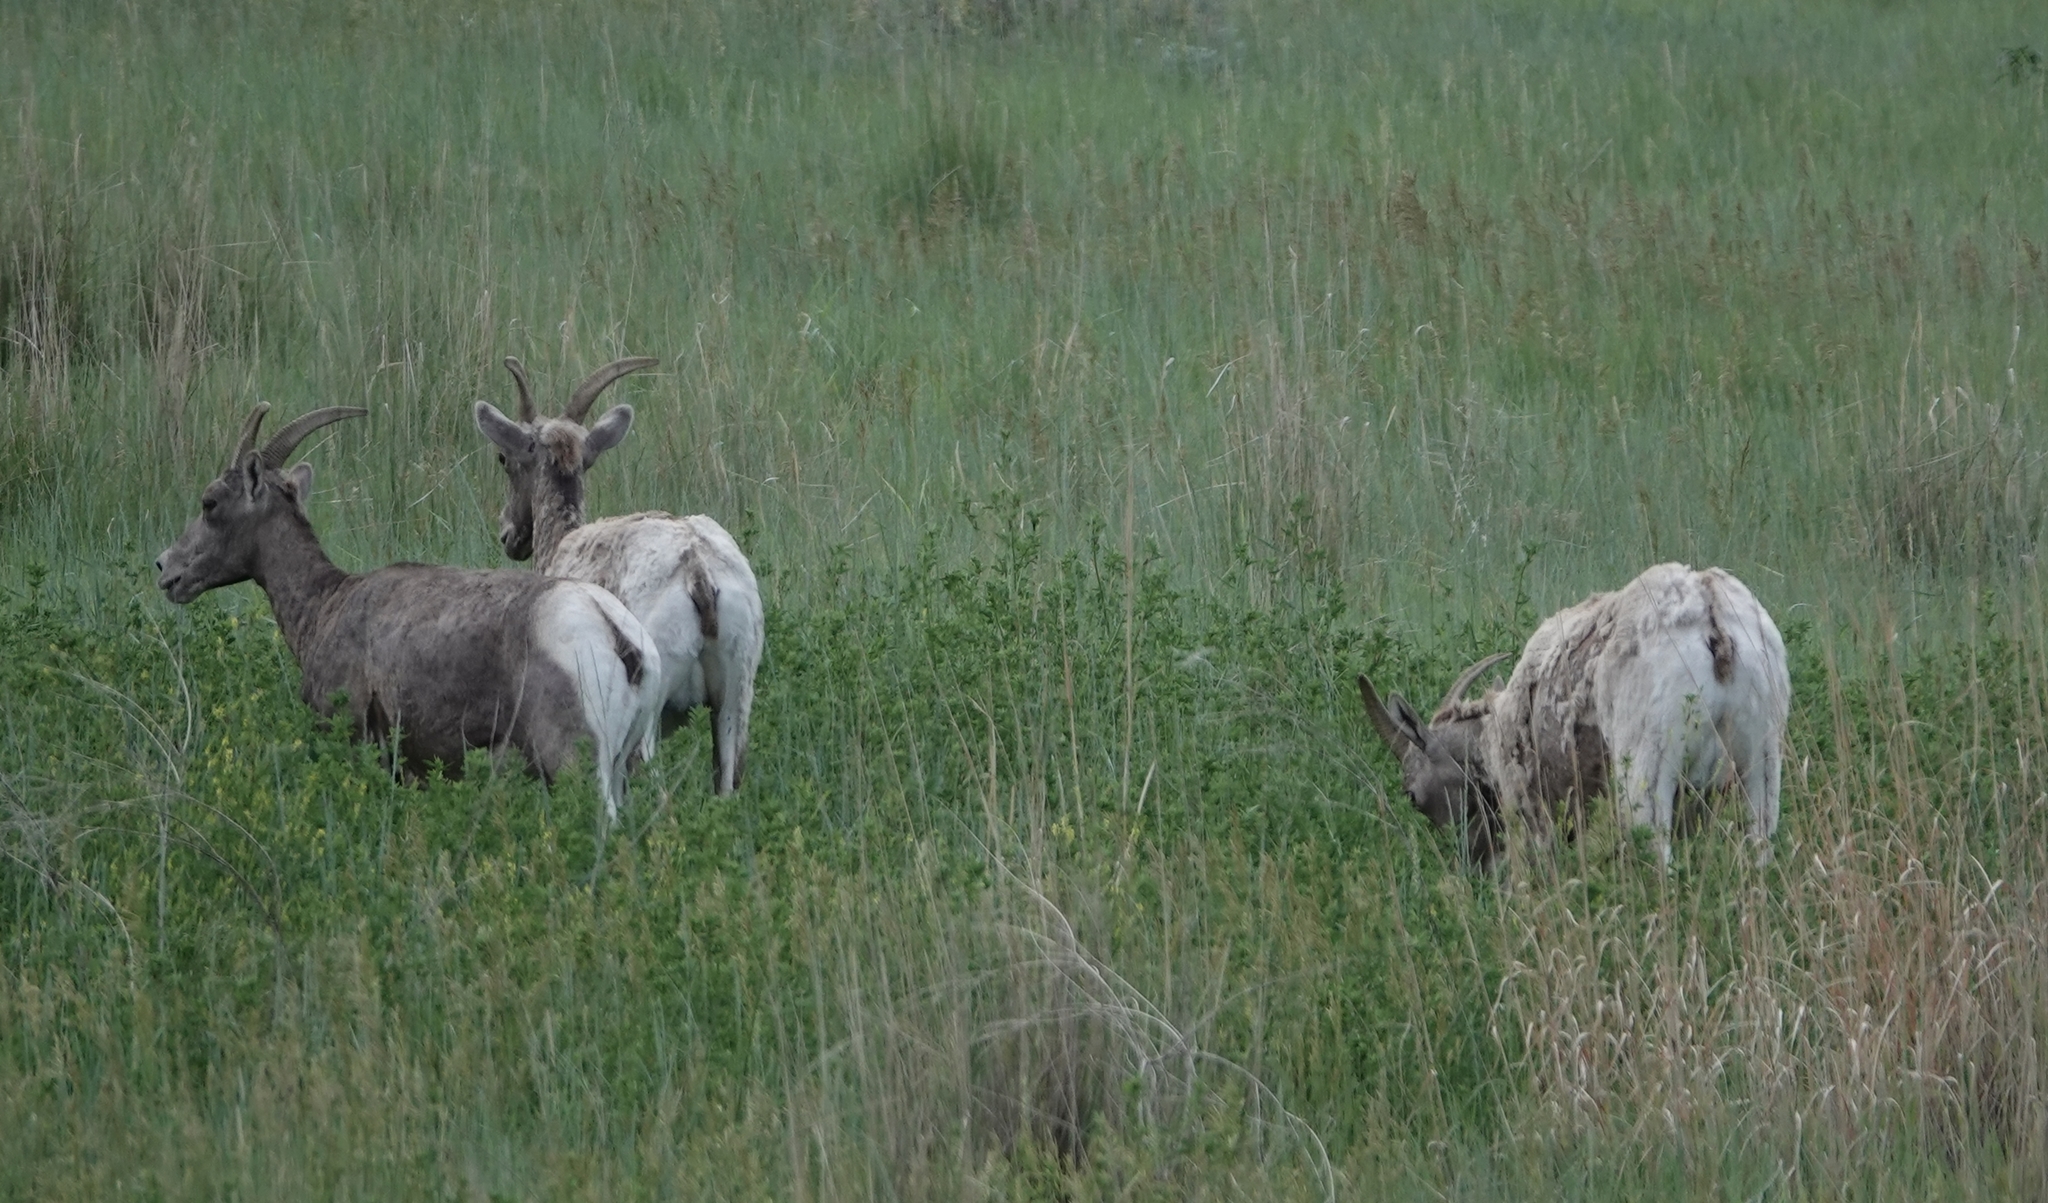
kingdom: Animalia
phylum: Chordata
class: Mammalia
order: Artiodactyla
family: Bovidae
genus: Ovis
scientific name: Ovis canadensis
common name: Bighorn sheep
